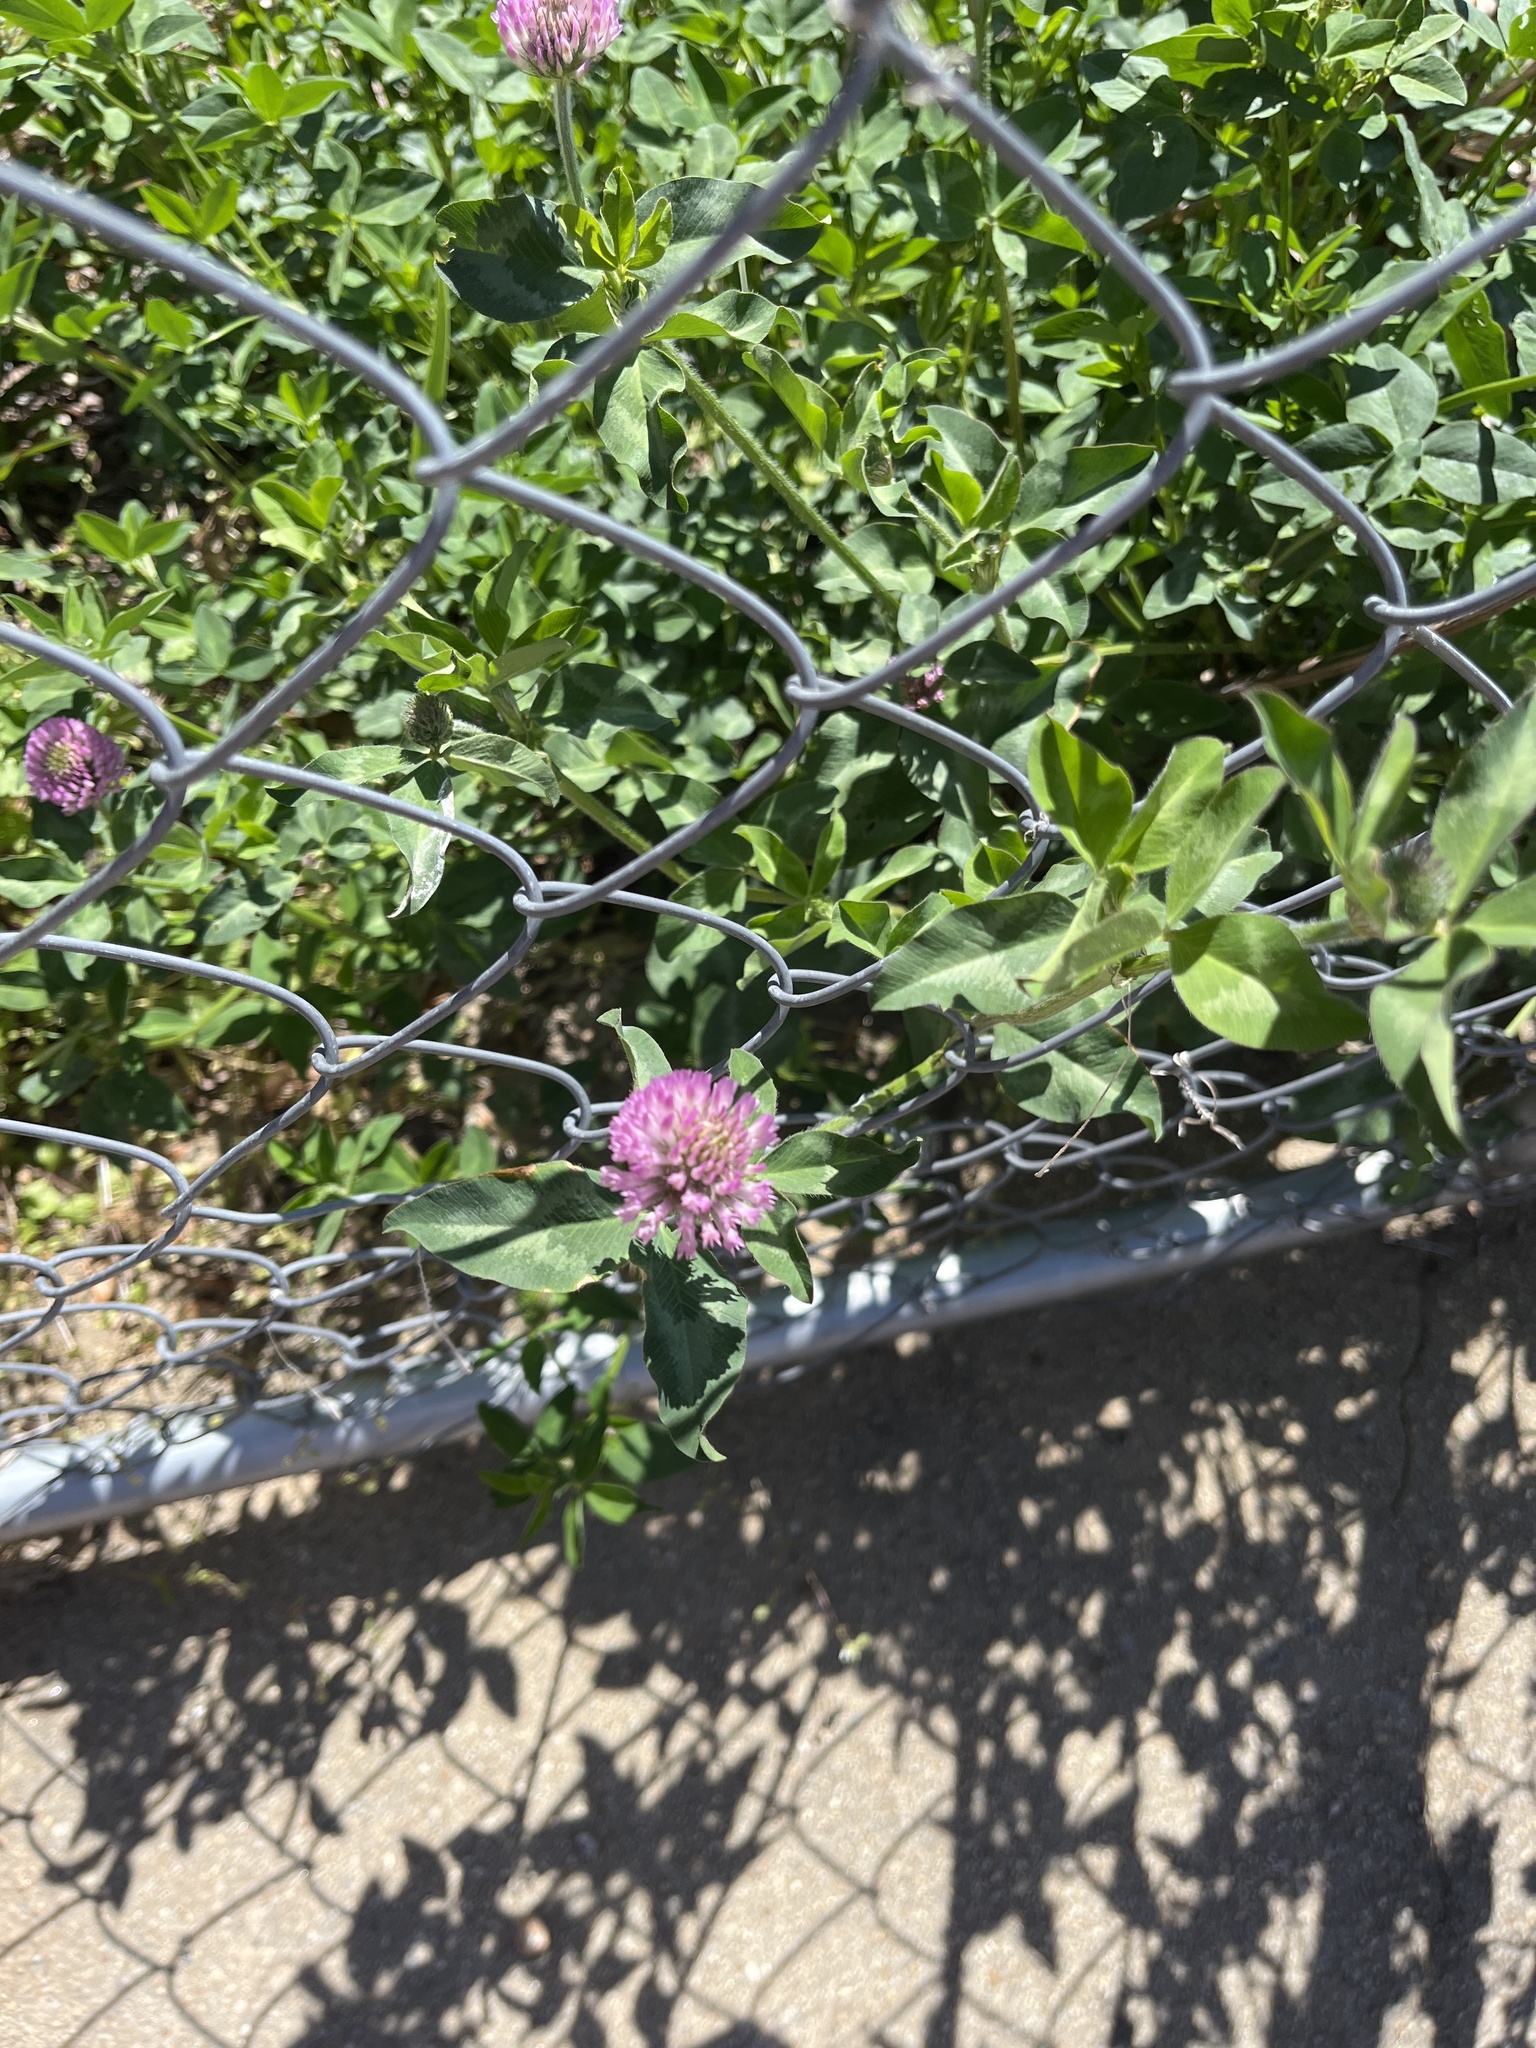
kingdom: Plantae
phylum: Tracheophyta
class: Magnoliopsida
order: Fabales
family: Fabaceae
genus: Trifolium
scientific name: Trifolium pratense
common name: Red clover
